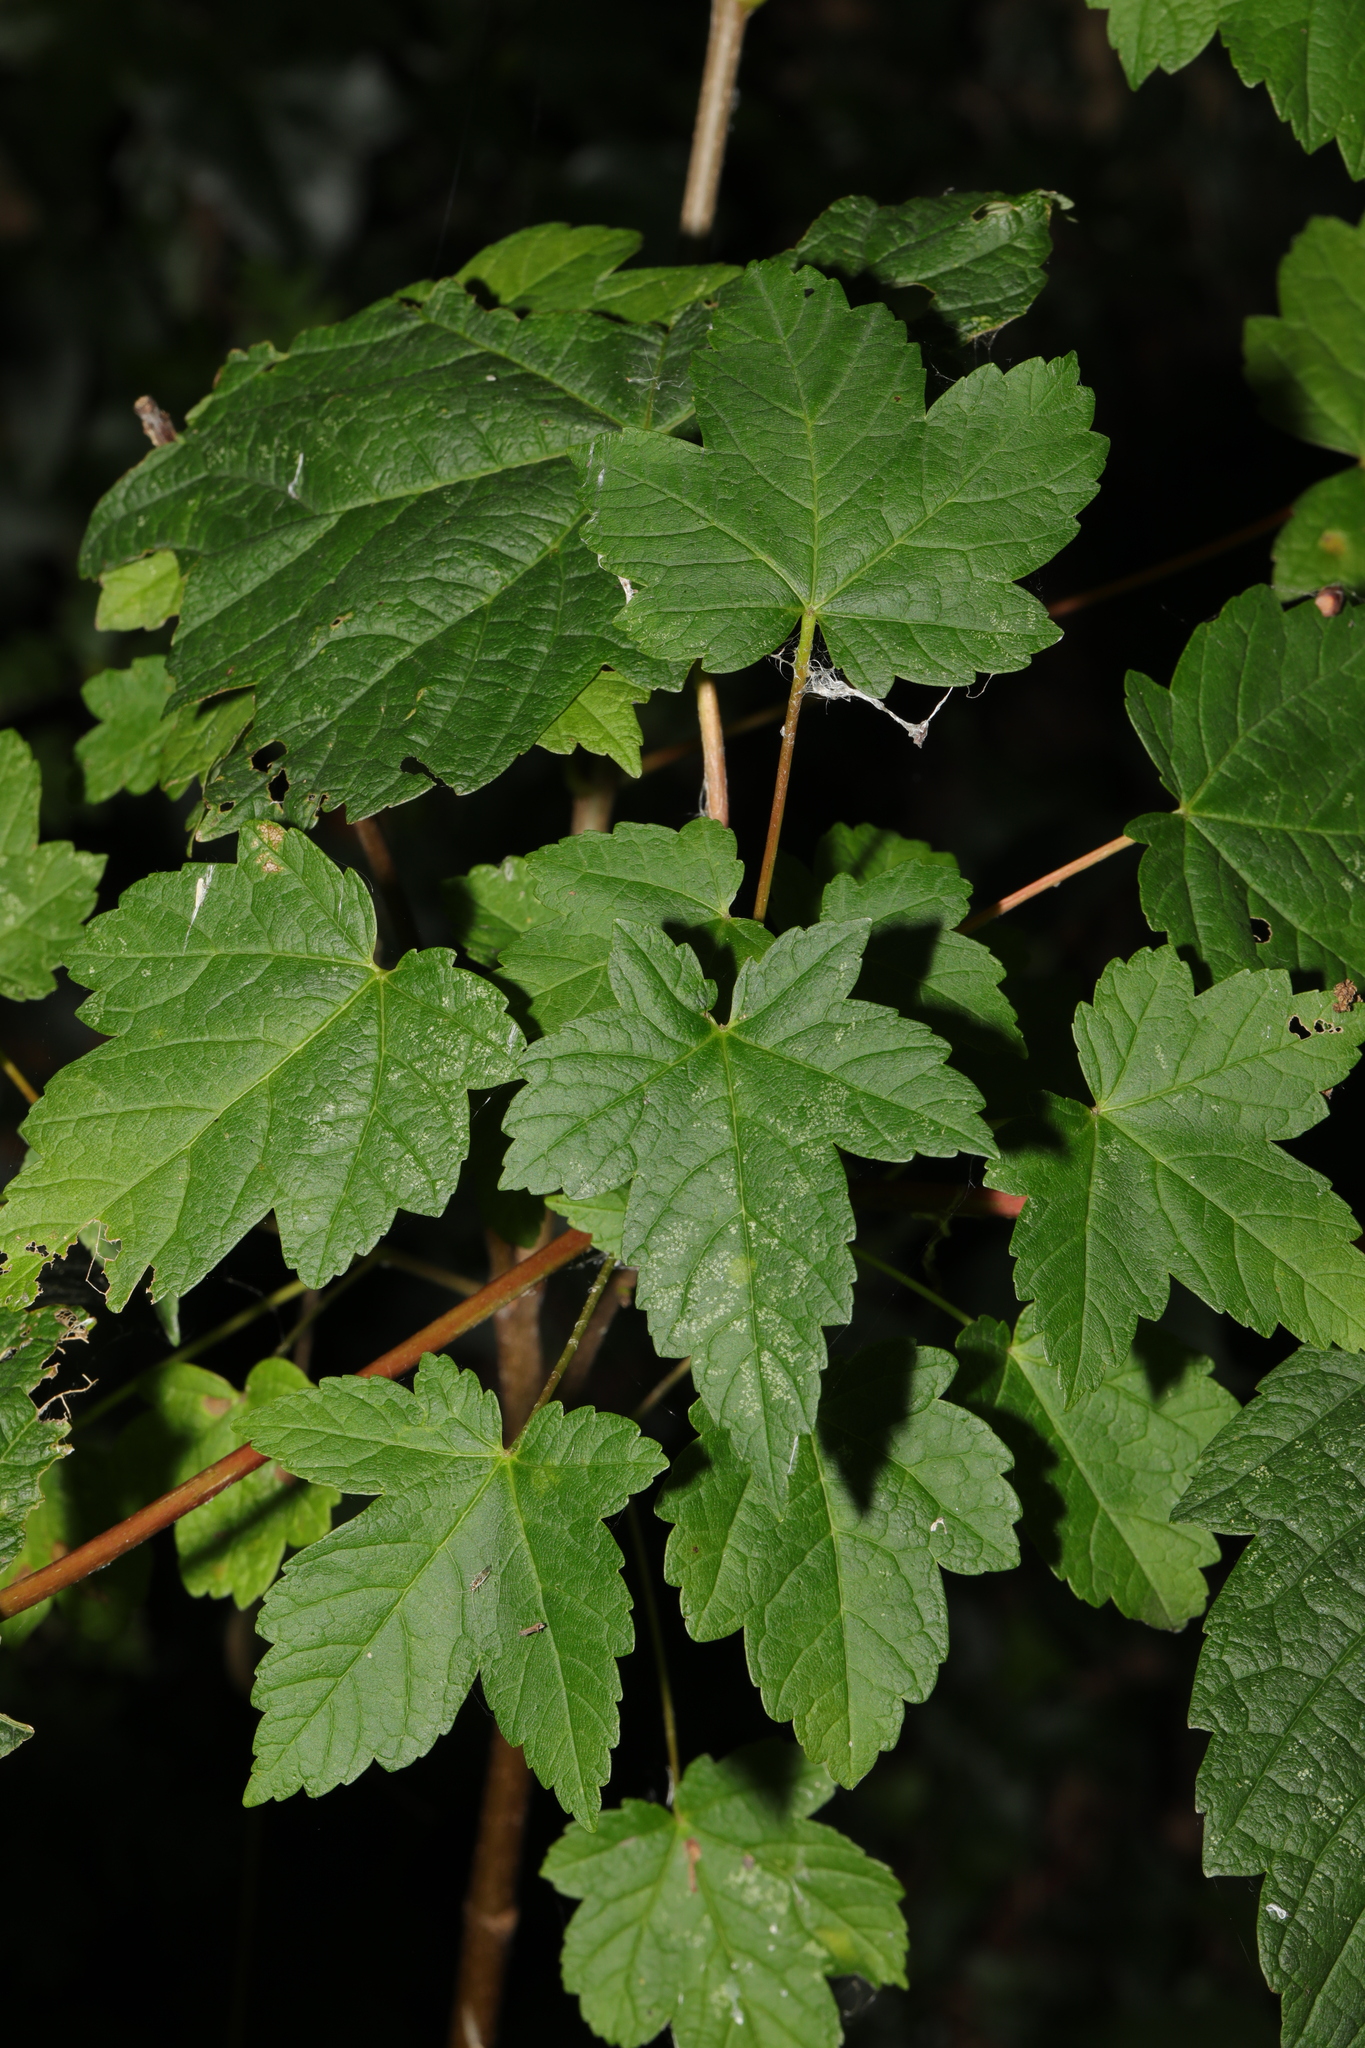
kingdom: Plantae
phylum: Tracheophyta
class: Magnoliopsida
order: Sapindales
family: Sapindaceae
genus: Acer
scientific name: Acer pseudoplatanus
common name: Sycamore
